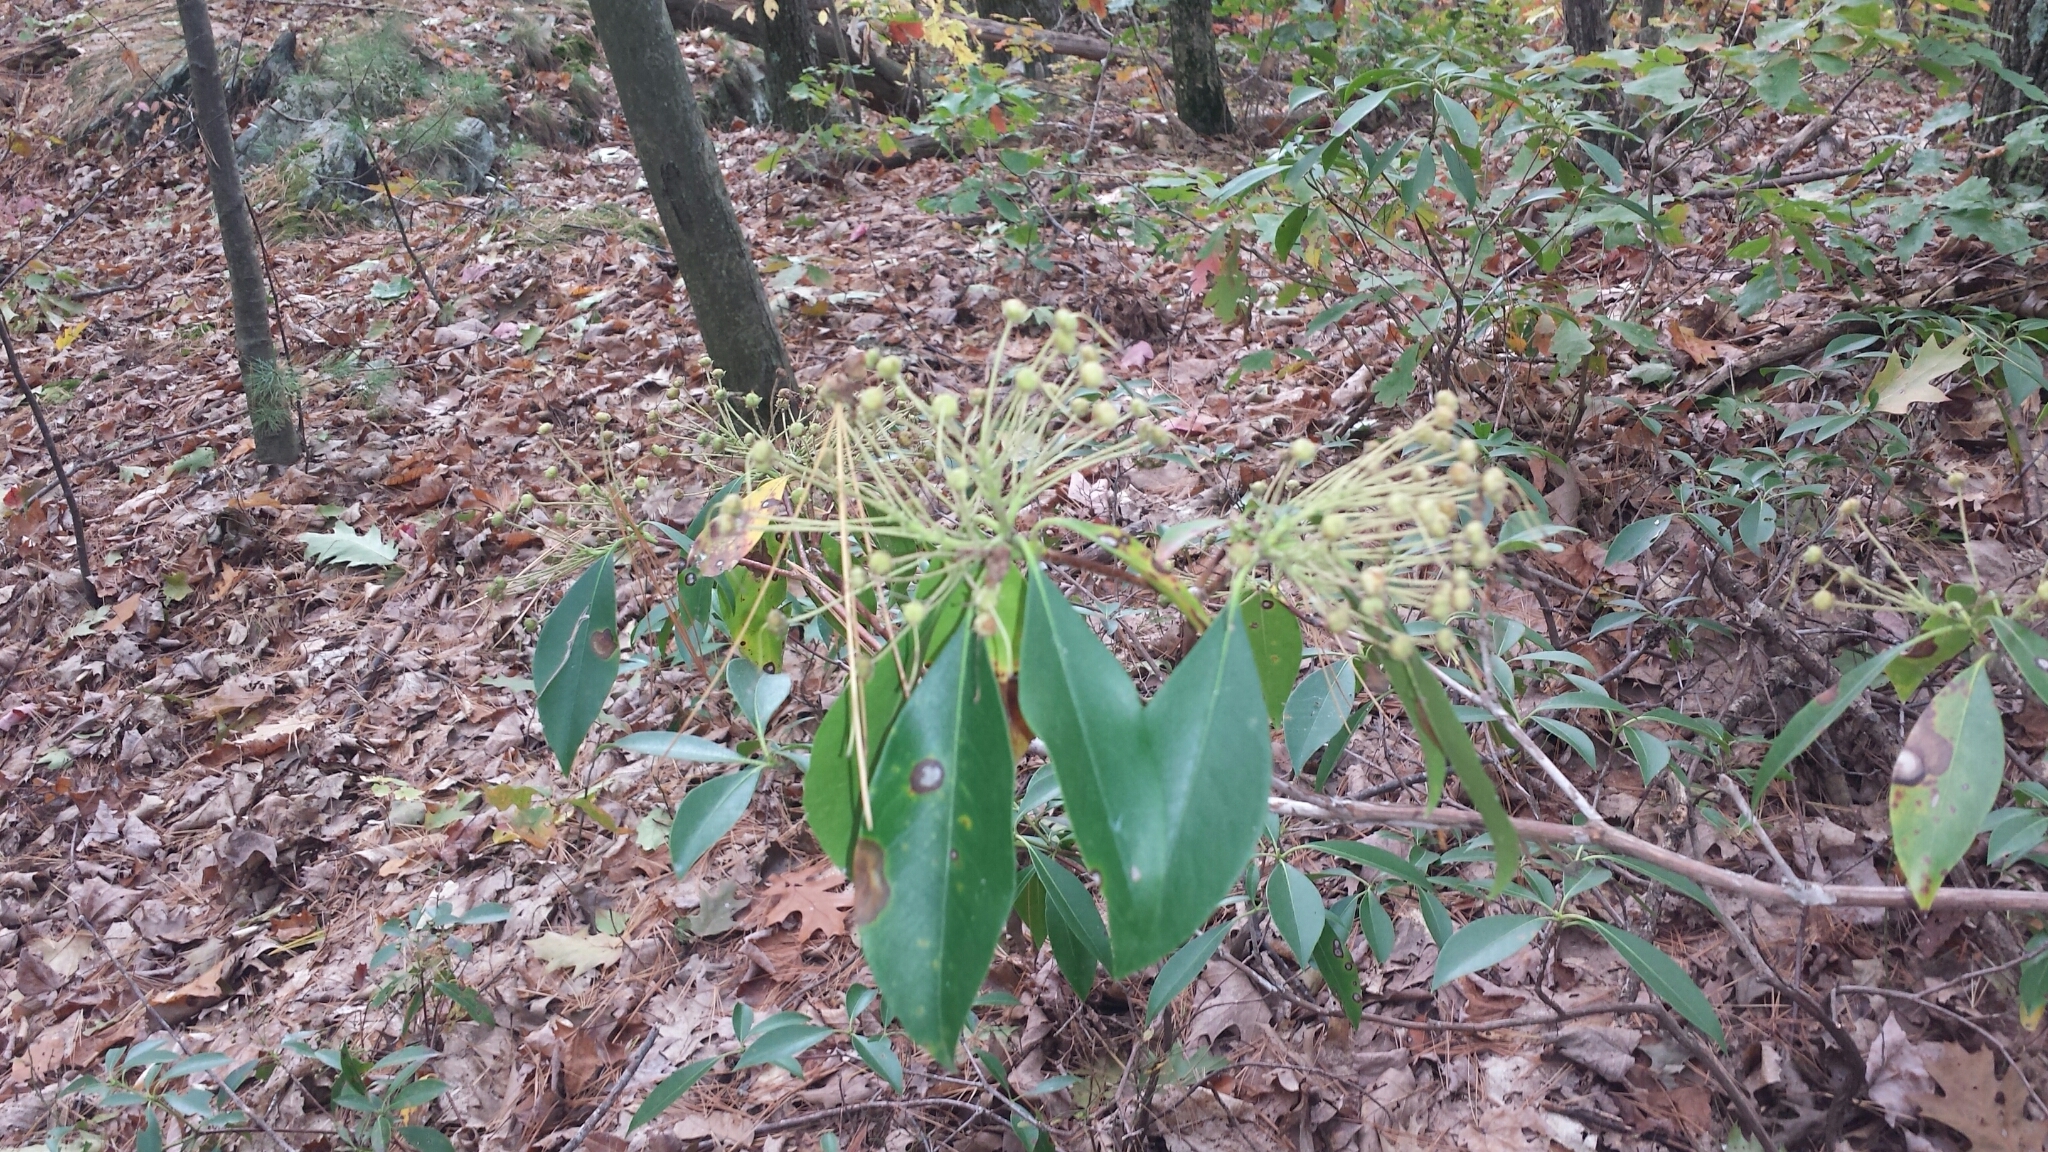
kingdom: Plantae
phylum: Tracheophyta
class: Magnoliopsida
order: Ericales
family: Ericaceae
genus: Kalmia
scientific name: Kalmia latifolia
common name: Mountain-laurel
